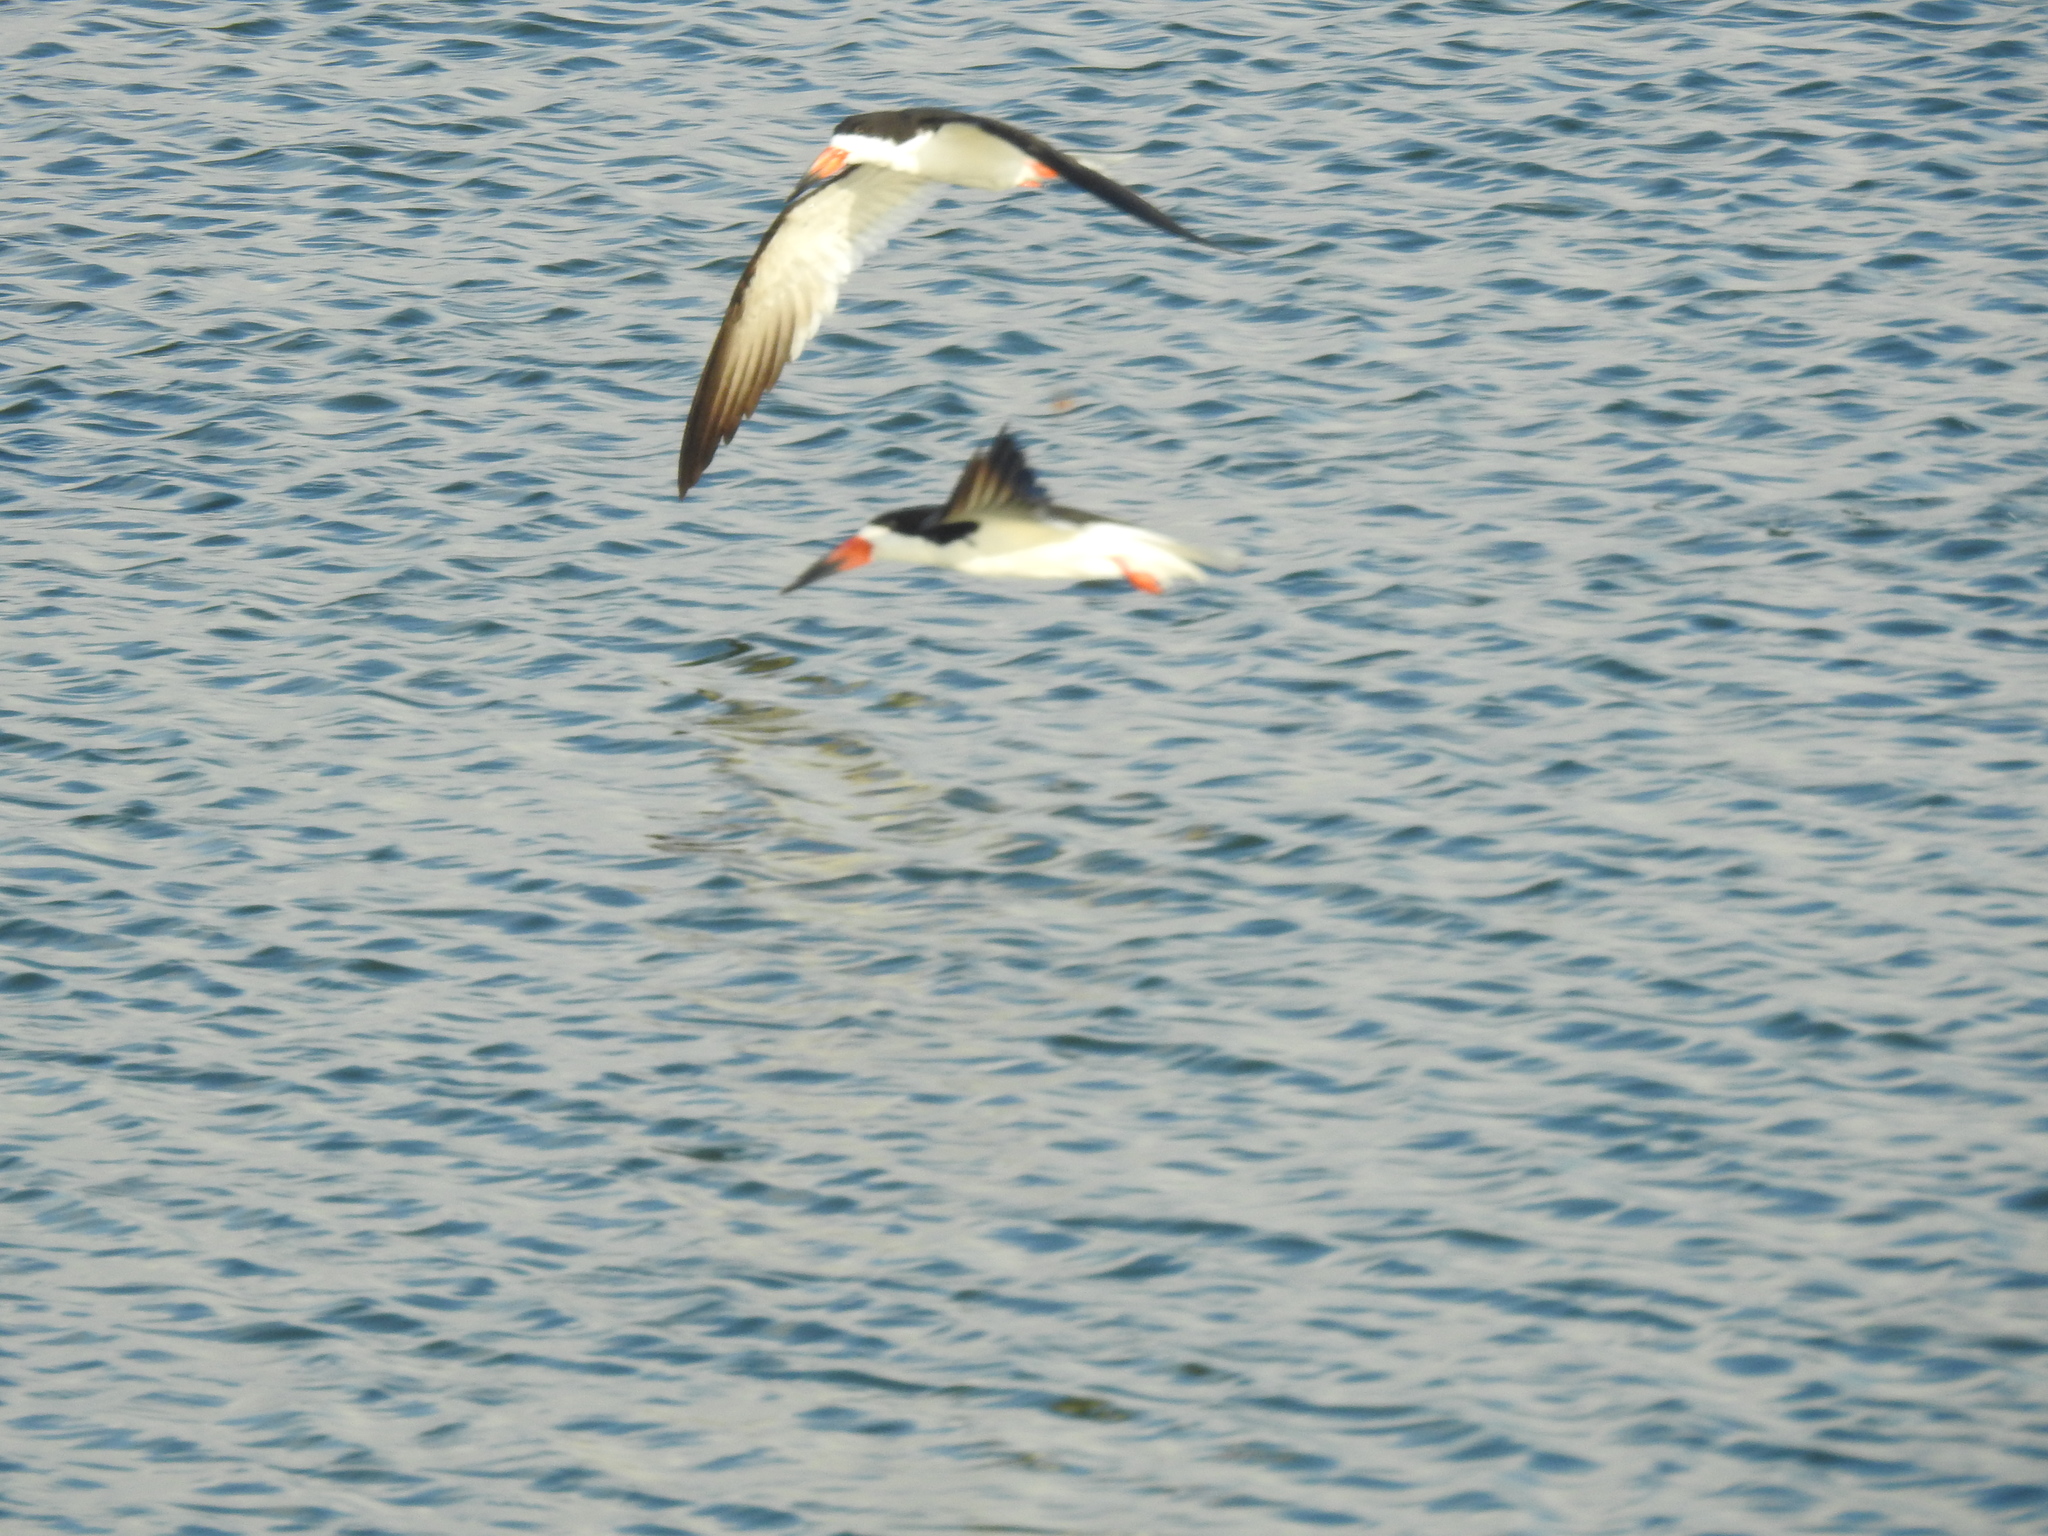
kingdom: Animalia
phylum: Chordata
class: Aves
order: Charadriiformes
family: Laridae
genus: Rynchops
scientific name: Rynchops niger
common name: Black skimmer
